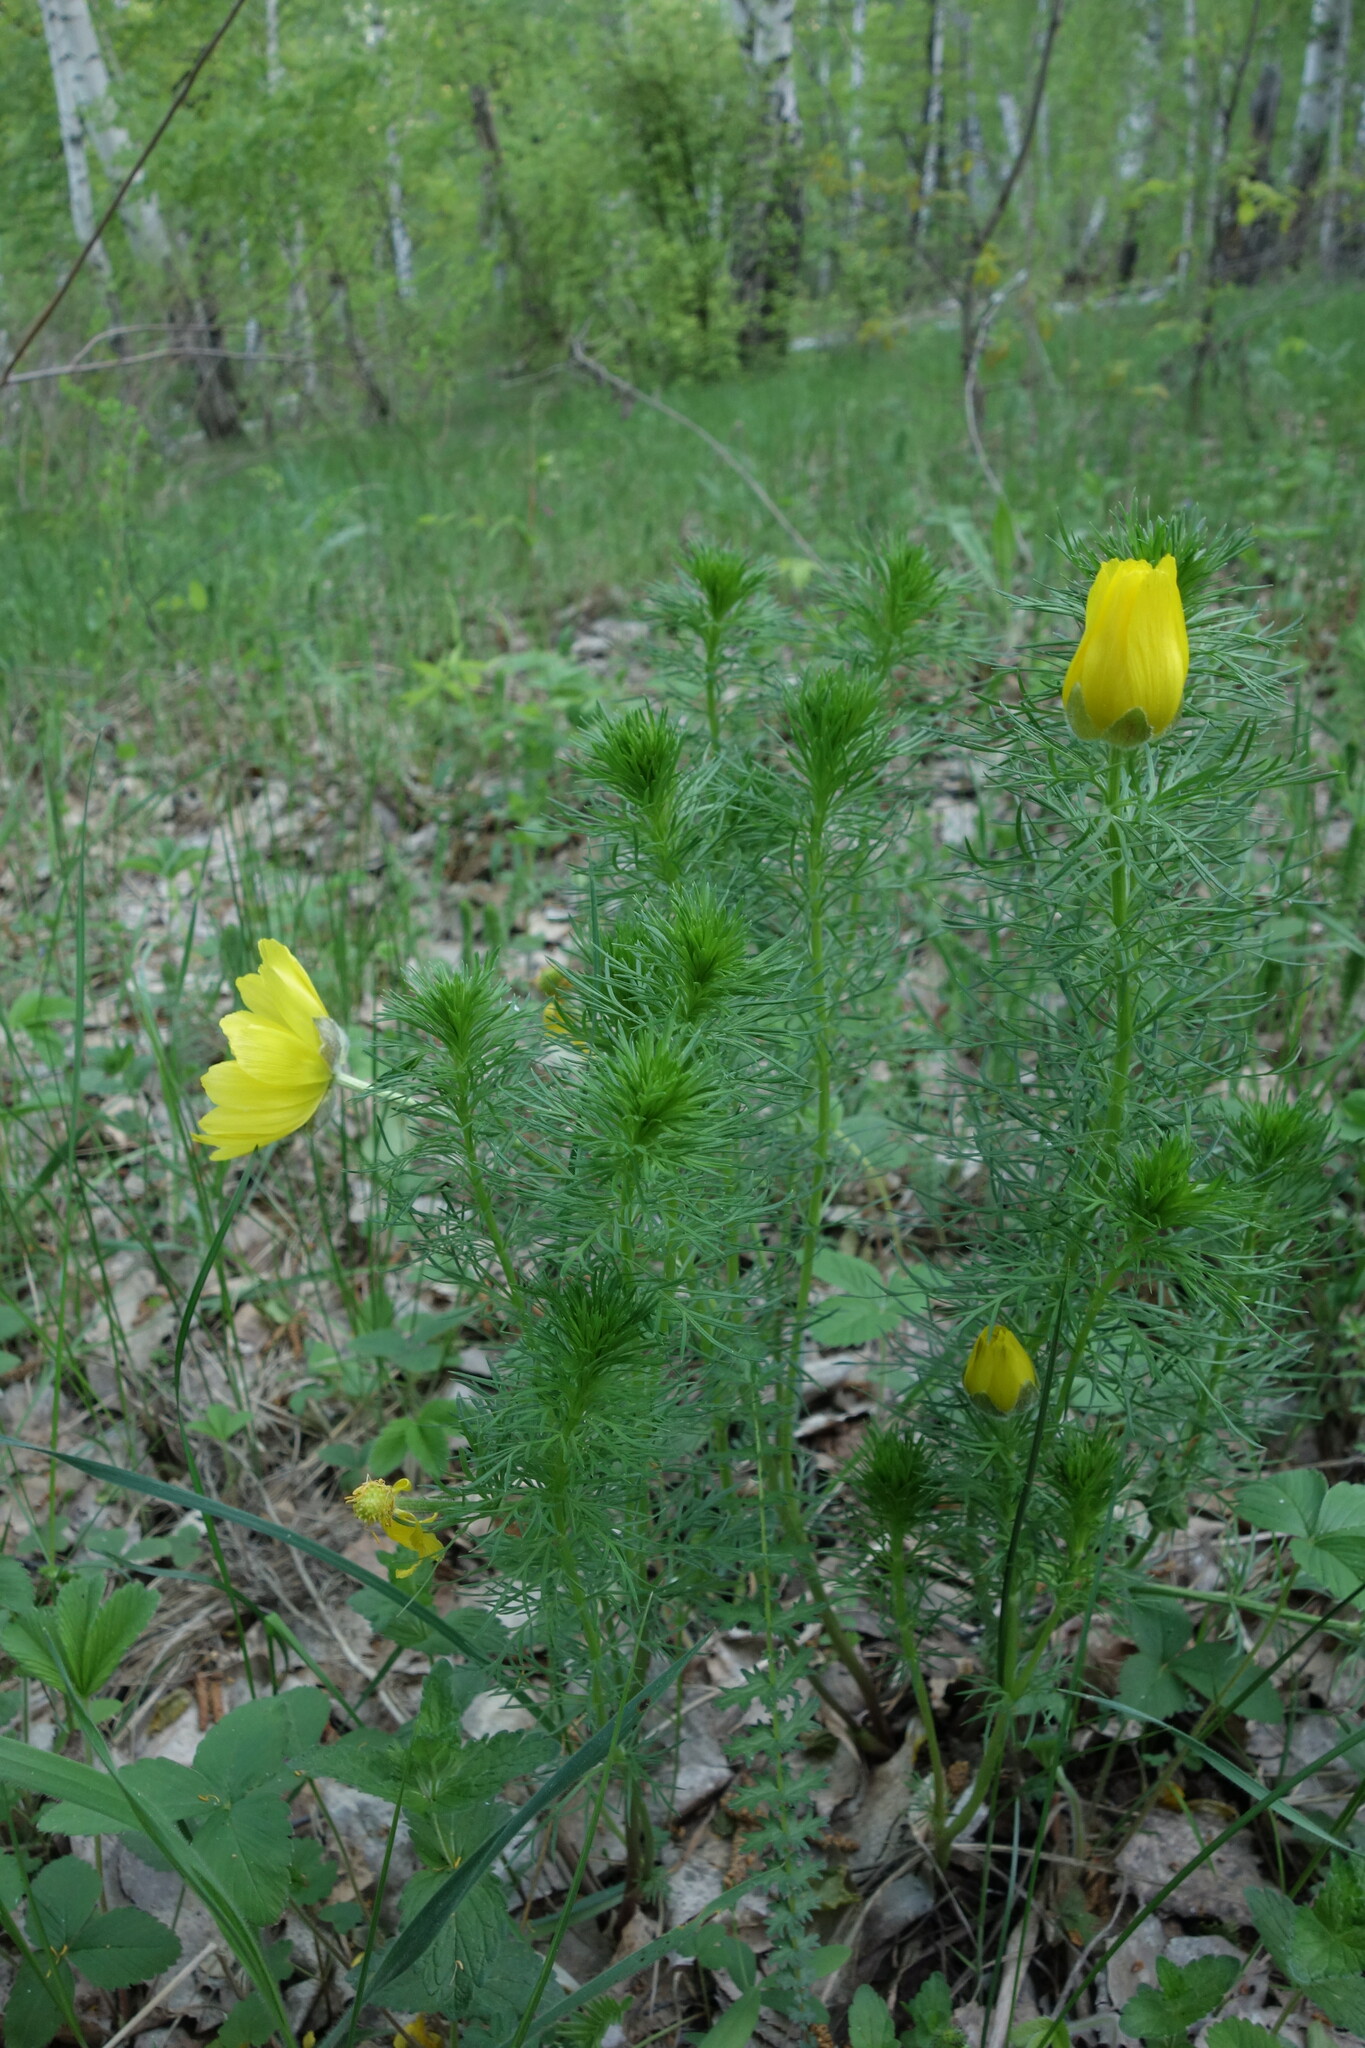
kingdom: Plantae
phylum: Tracheophyta
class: Magnoliopsida
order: Ranunculales
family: Ranunculaceae
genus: Adonis
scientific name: Adonis vernalis
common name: Yellow pheasants-eye
